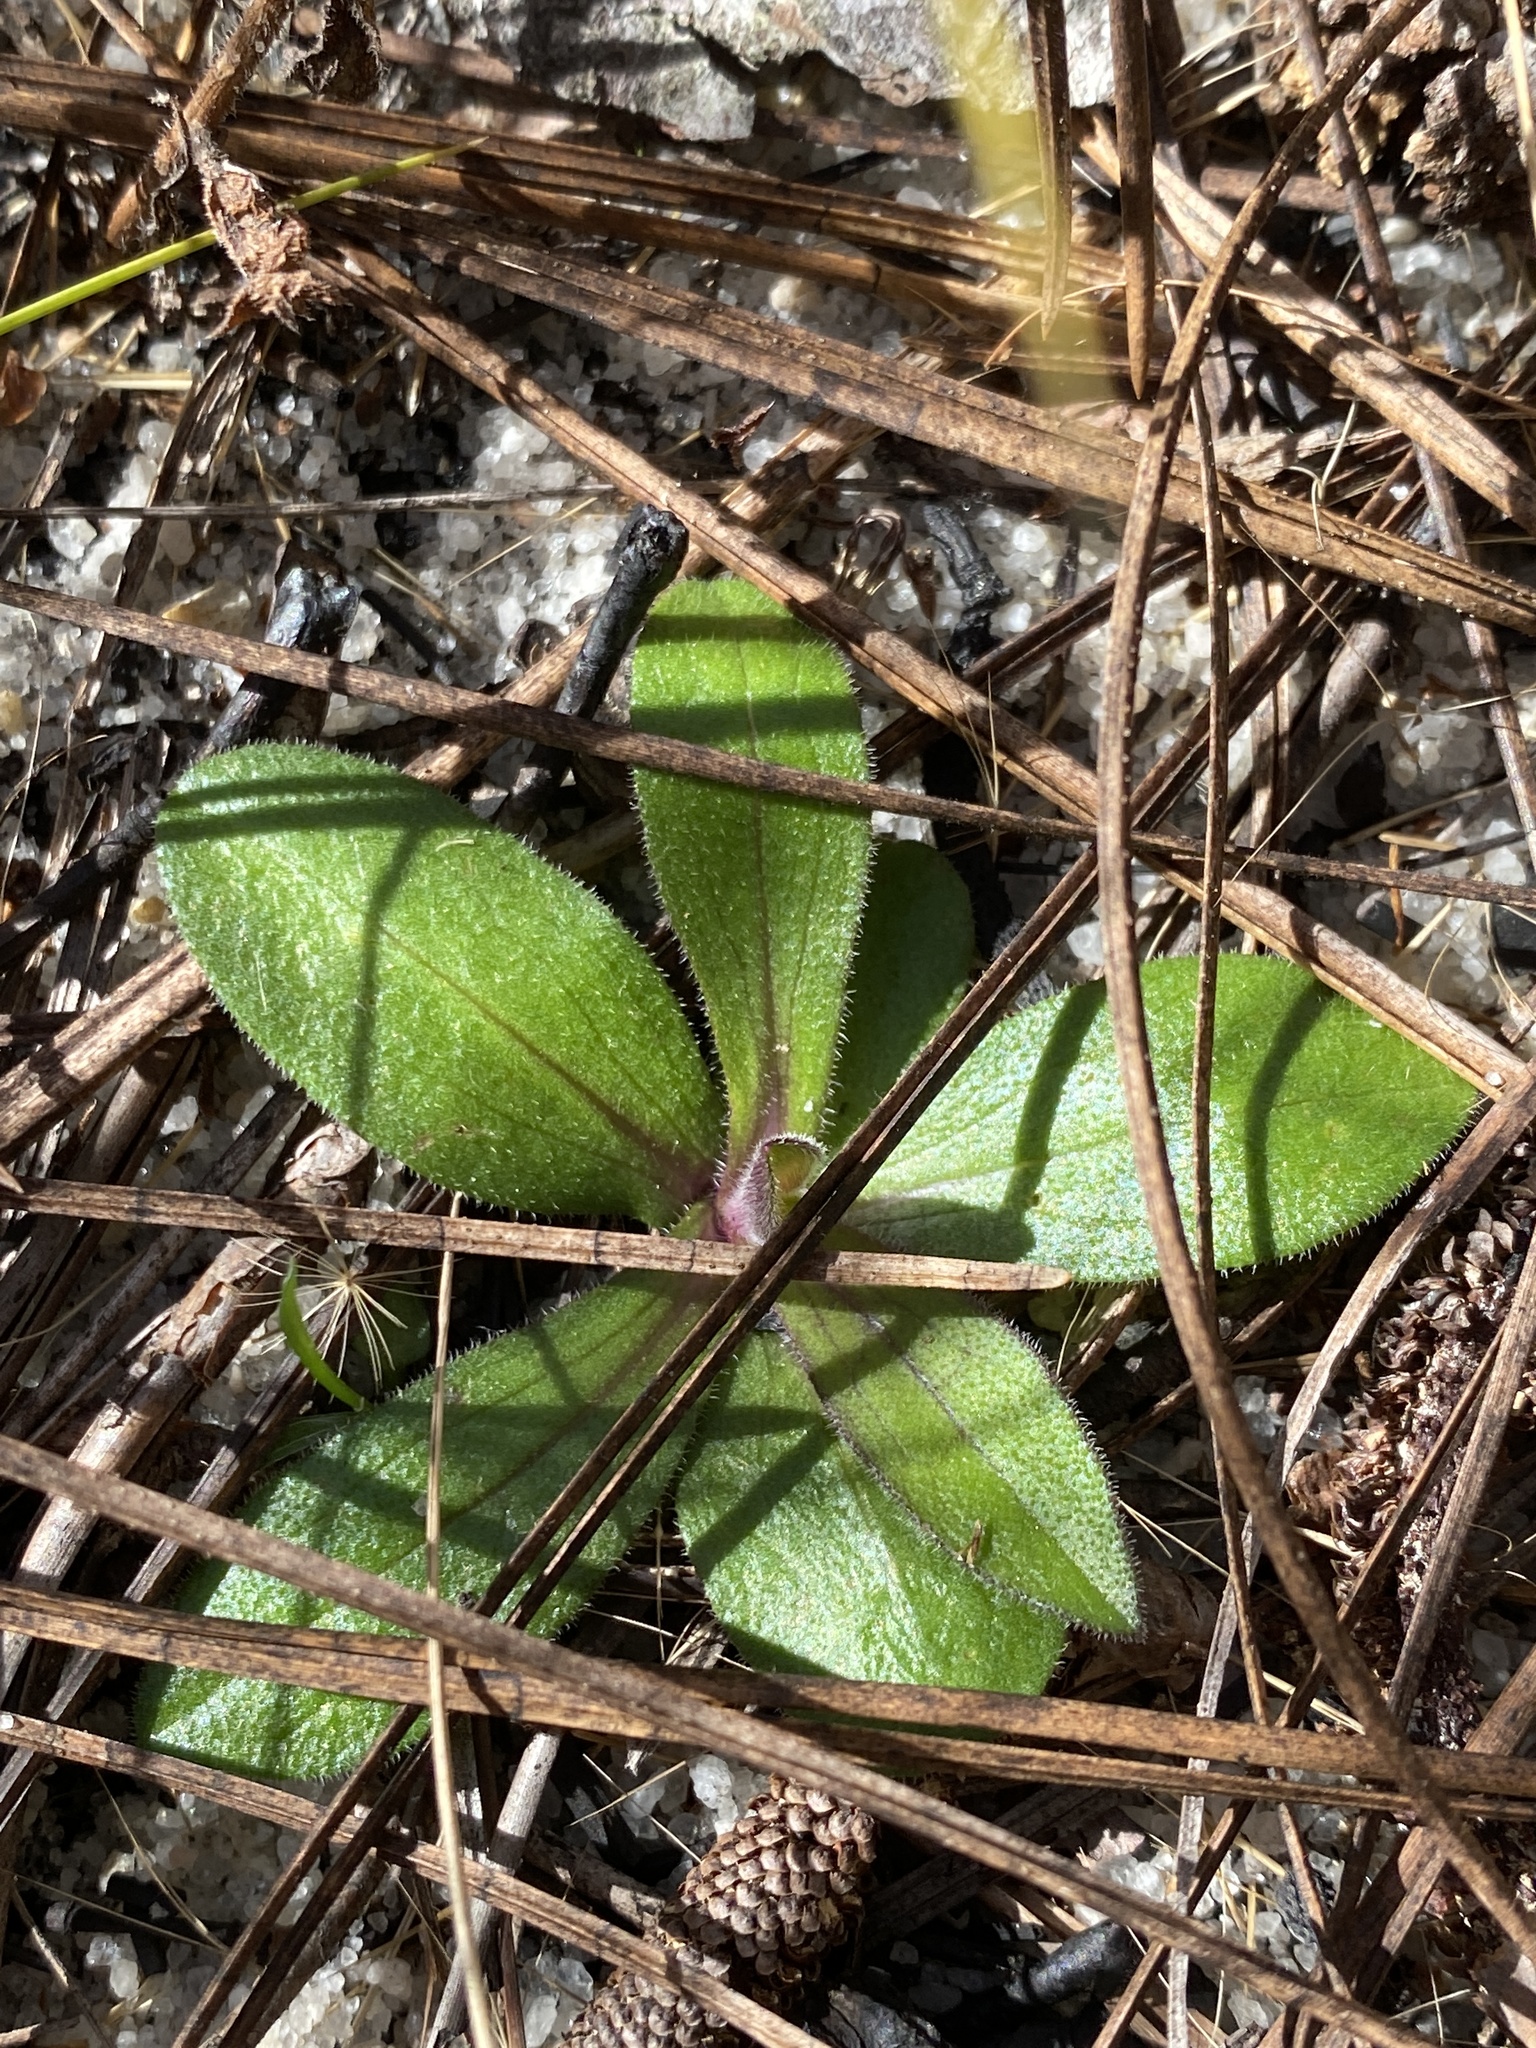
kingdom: Plantae
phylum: Tracheophyta
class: Magnoliopsida
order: Asterales
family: Asteraceae
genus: Symphyotrichum
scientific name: Symphyotrichum walteri
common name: Walter's aster
